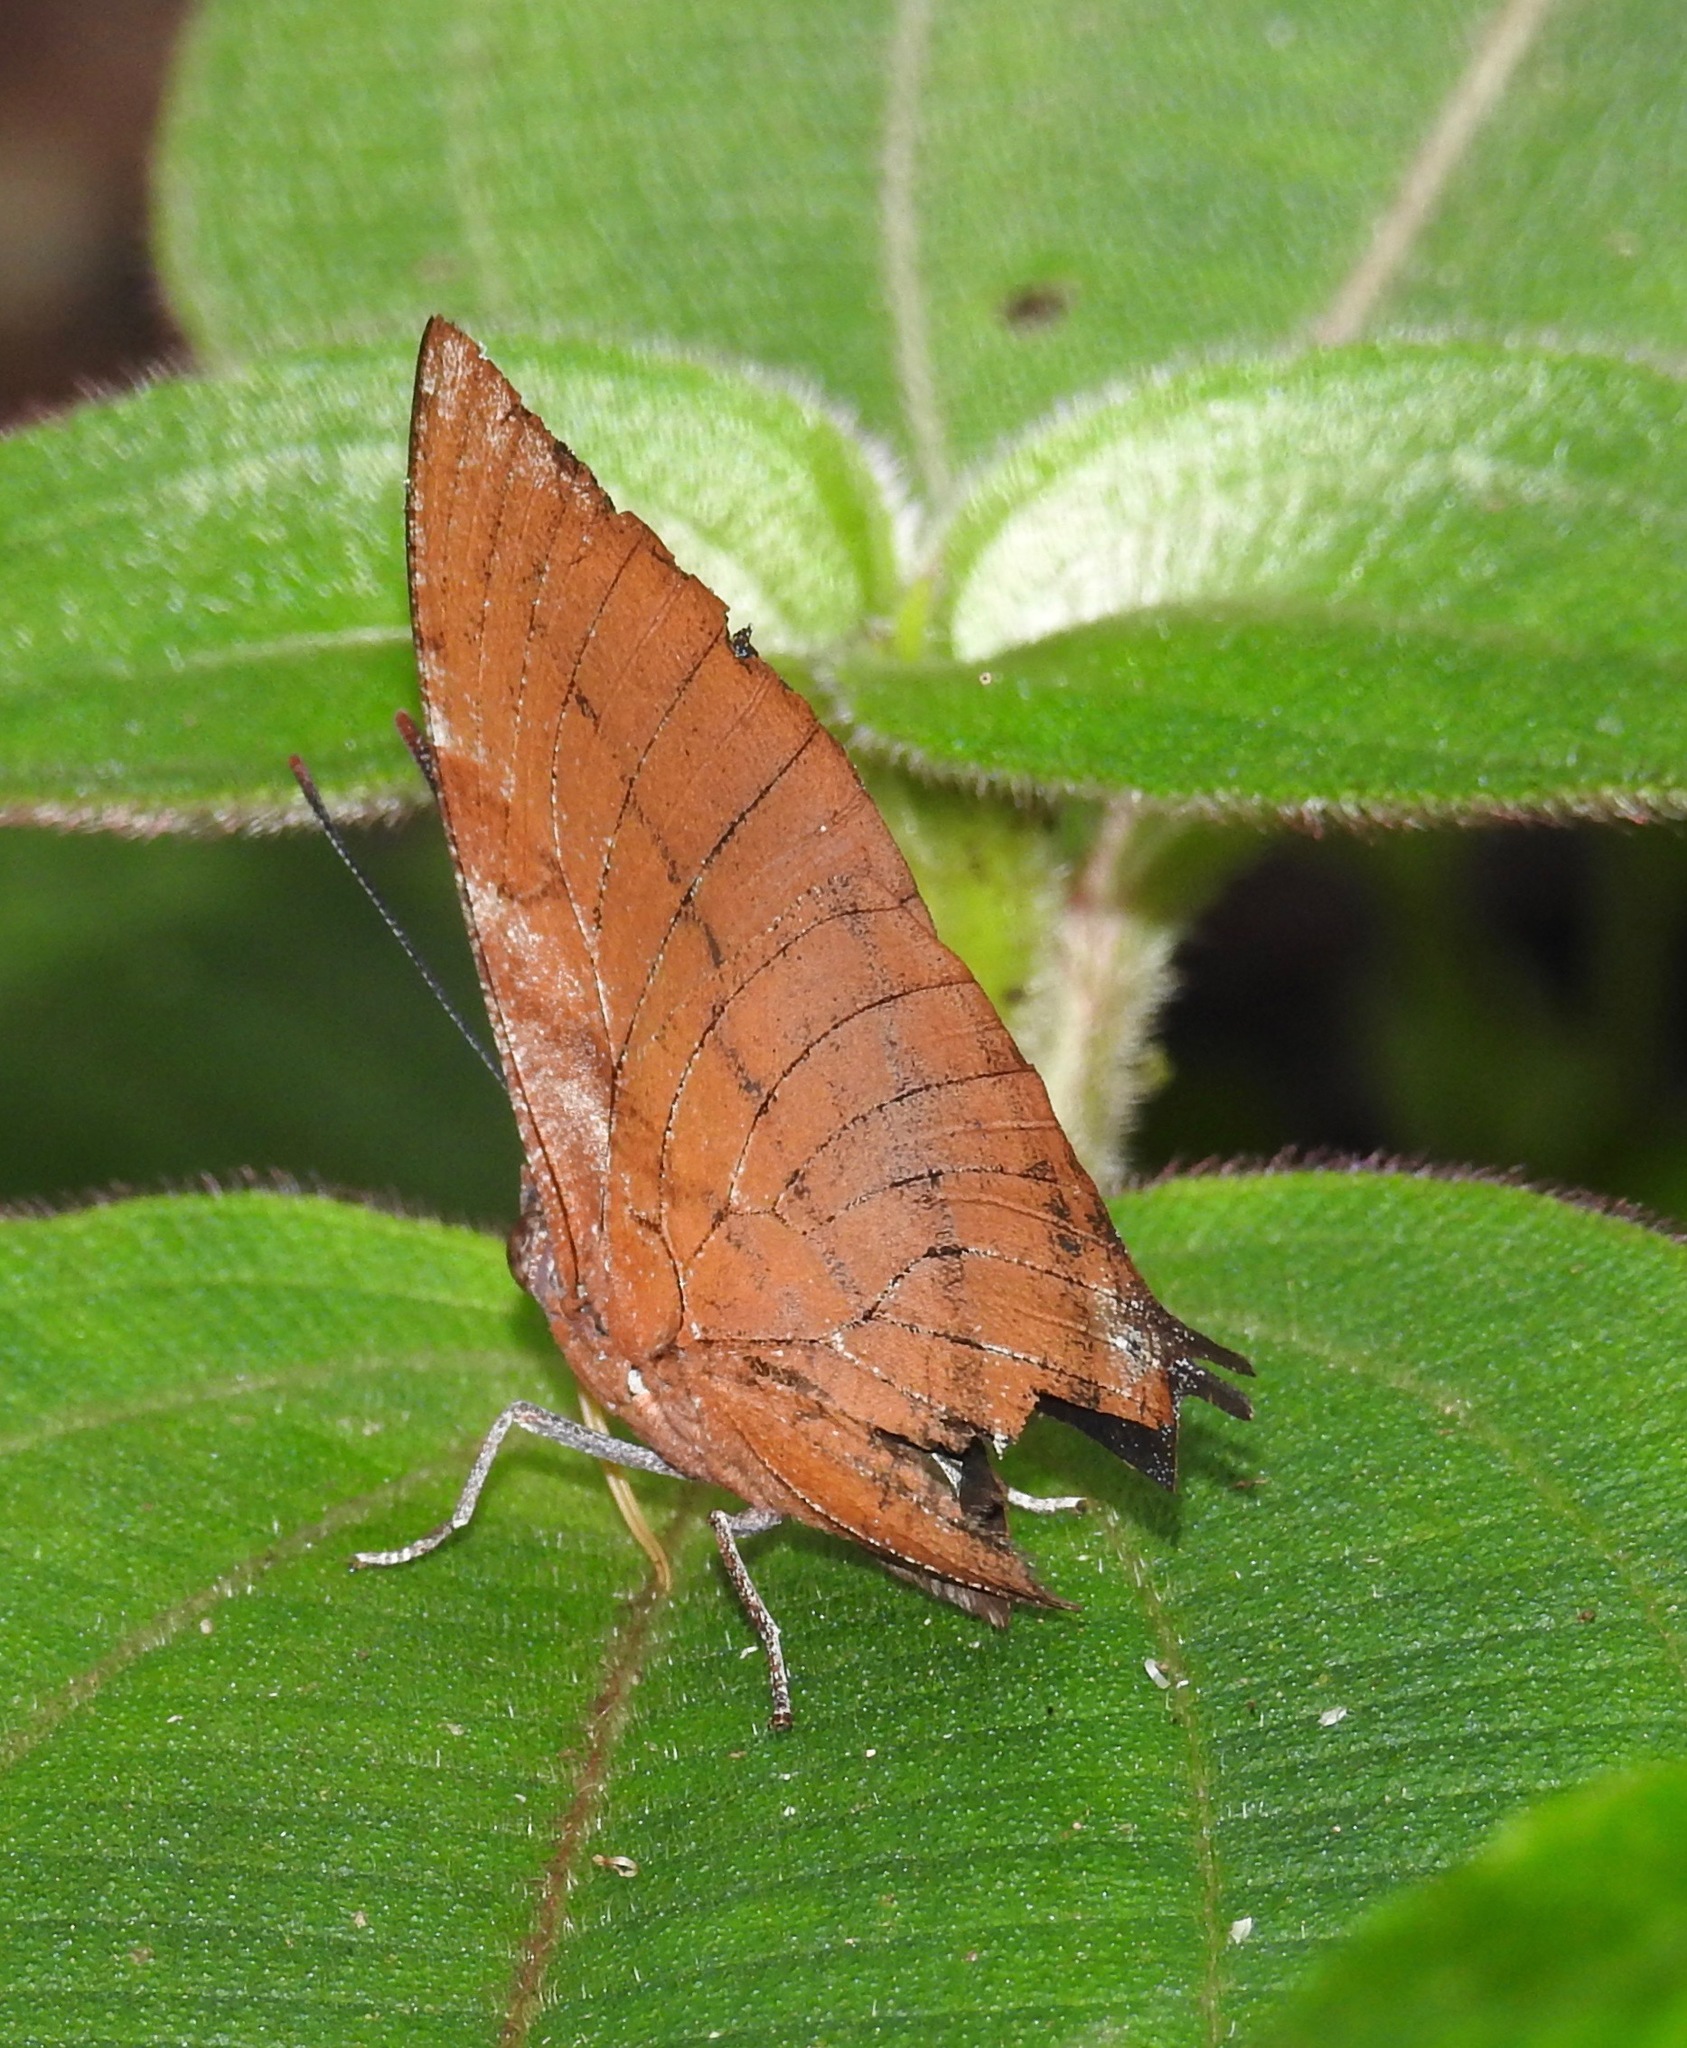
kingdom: Animalia
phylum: Arthropoda
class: Insecta
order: Lepidoptera
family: Nymphalidae
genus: Anaea
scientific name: Anaea philumena
